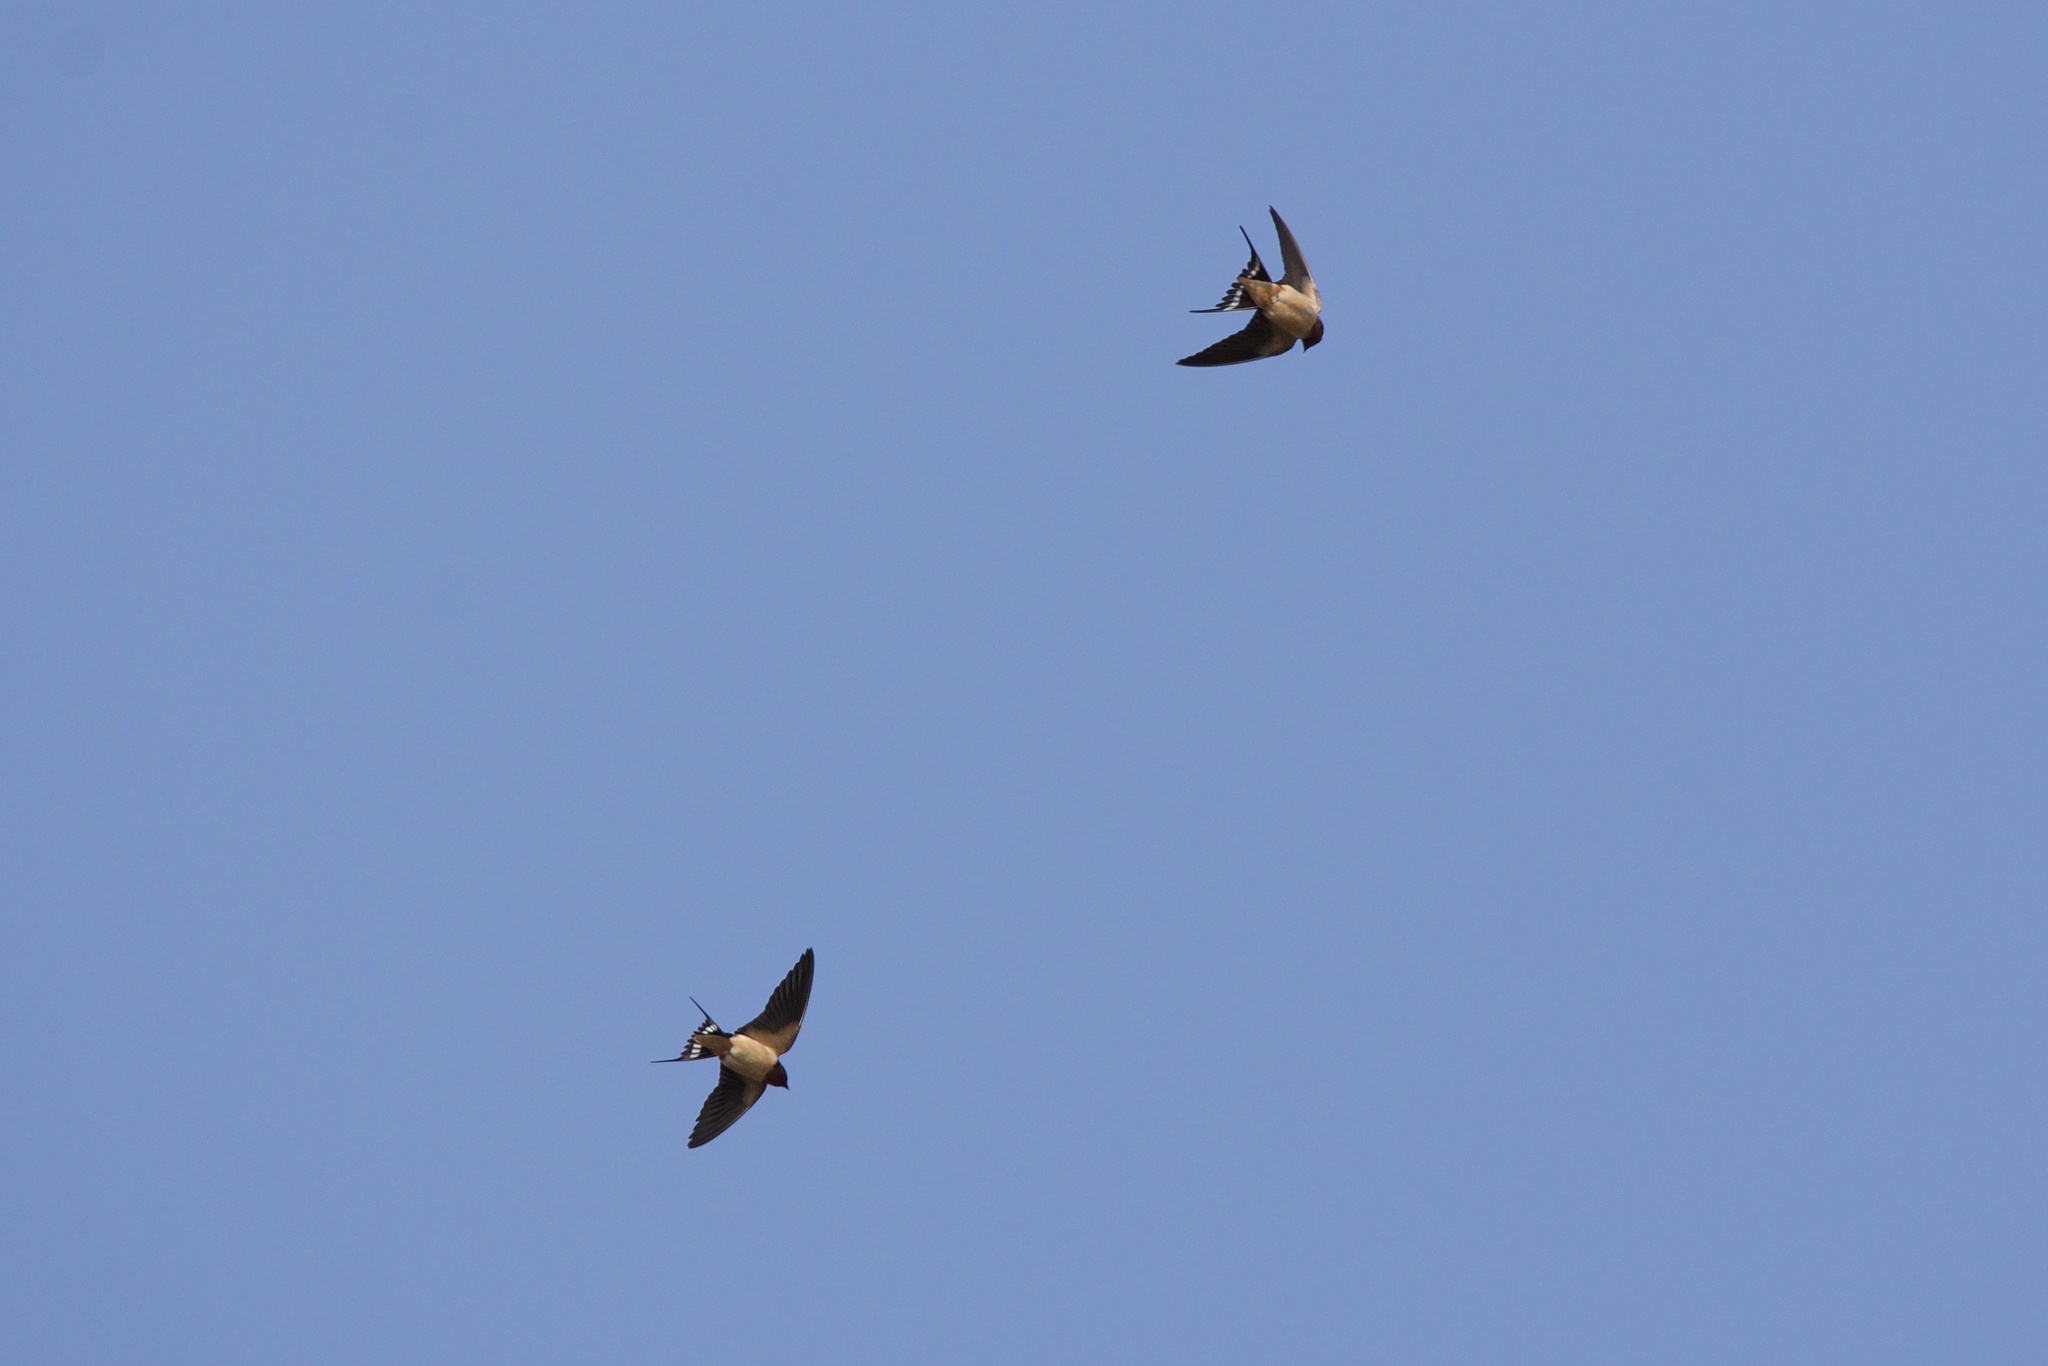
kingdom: Animalia
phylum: Chordata
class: Aves
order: Passeriformes
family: Hirundinidae
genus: Hirundo
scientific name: Hirundo rustica
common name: Barn swallow
